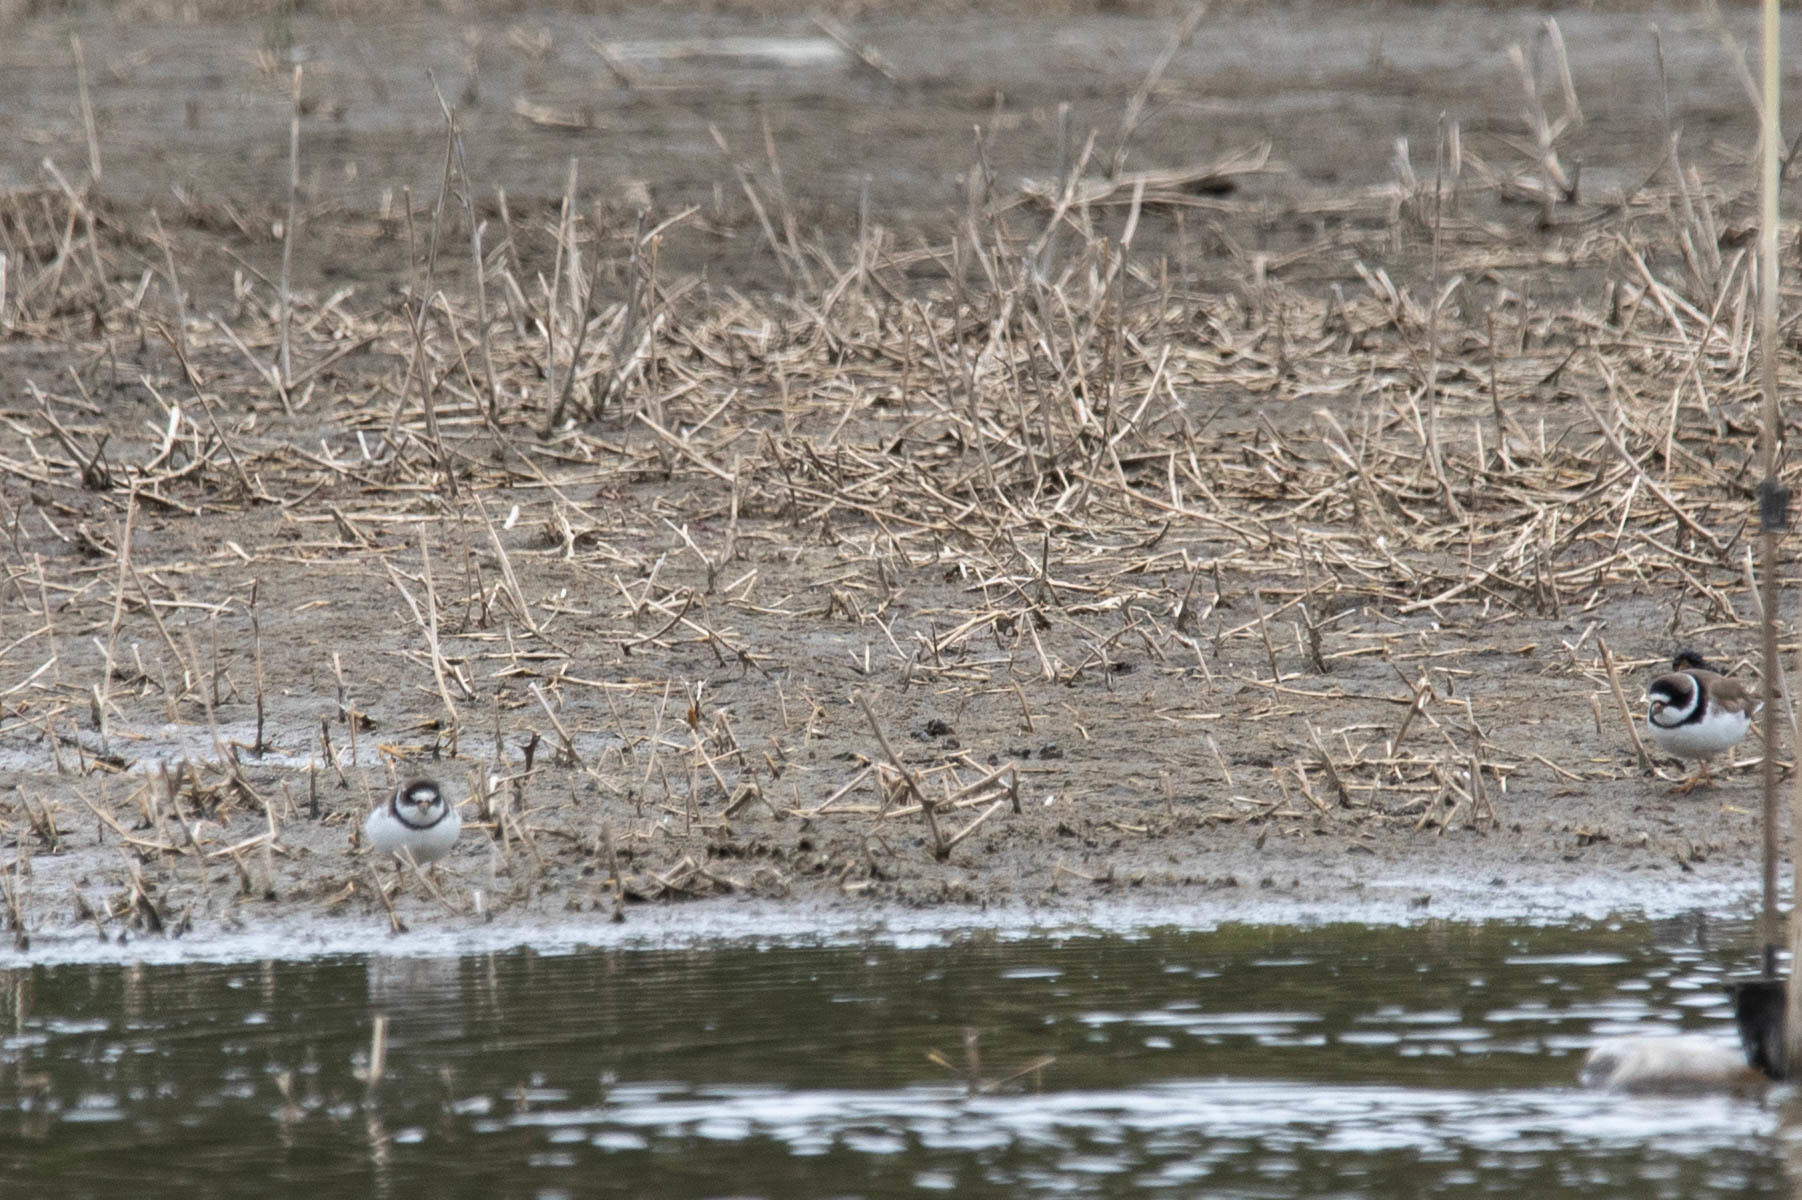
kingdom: Animalia
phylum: Chordata
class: Aves
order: Charadriiformes
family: Charadriidae
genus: Charadrius
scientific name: Charadrius semipalmatus
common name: Semipalmated plover
